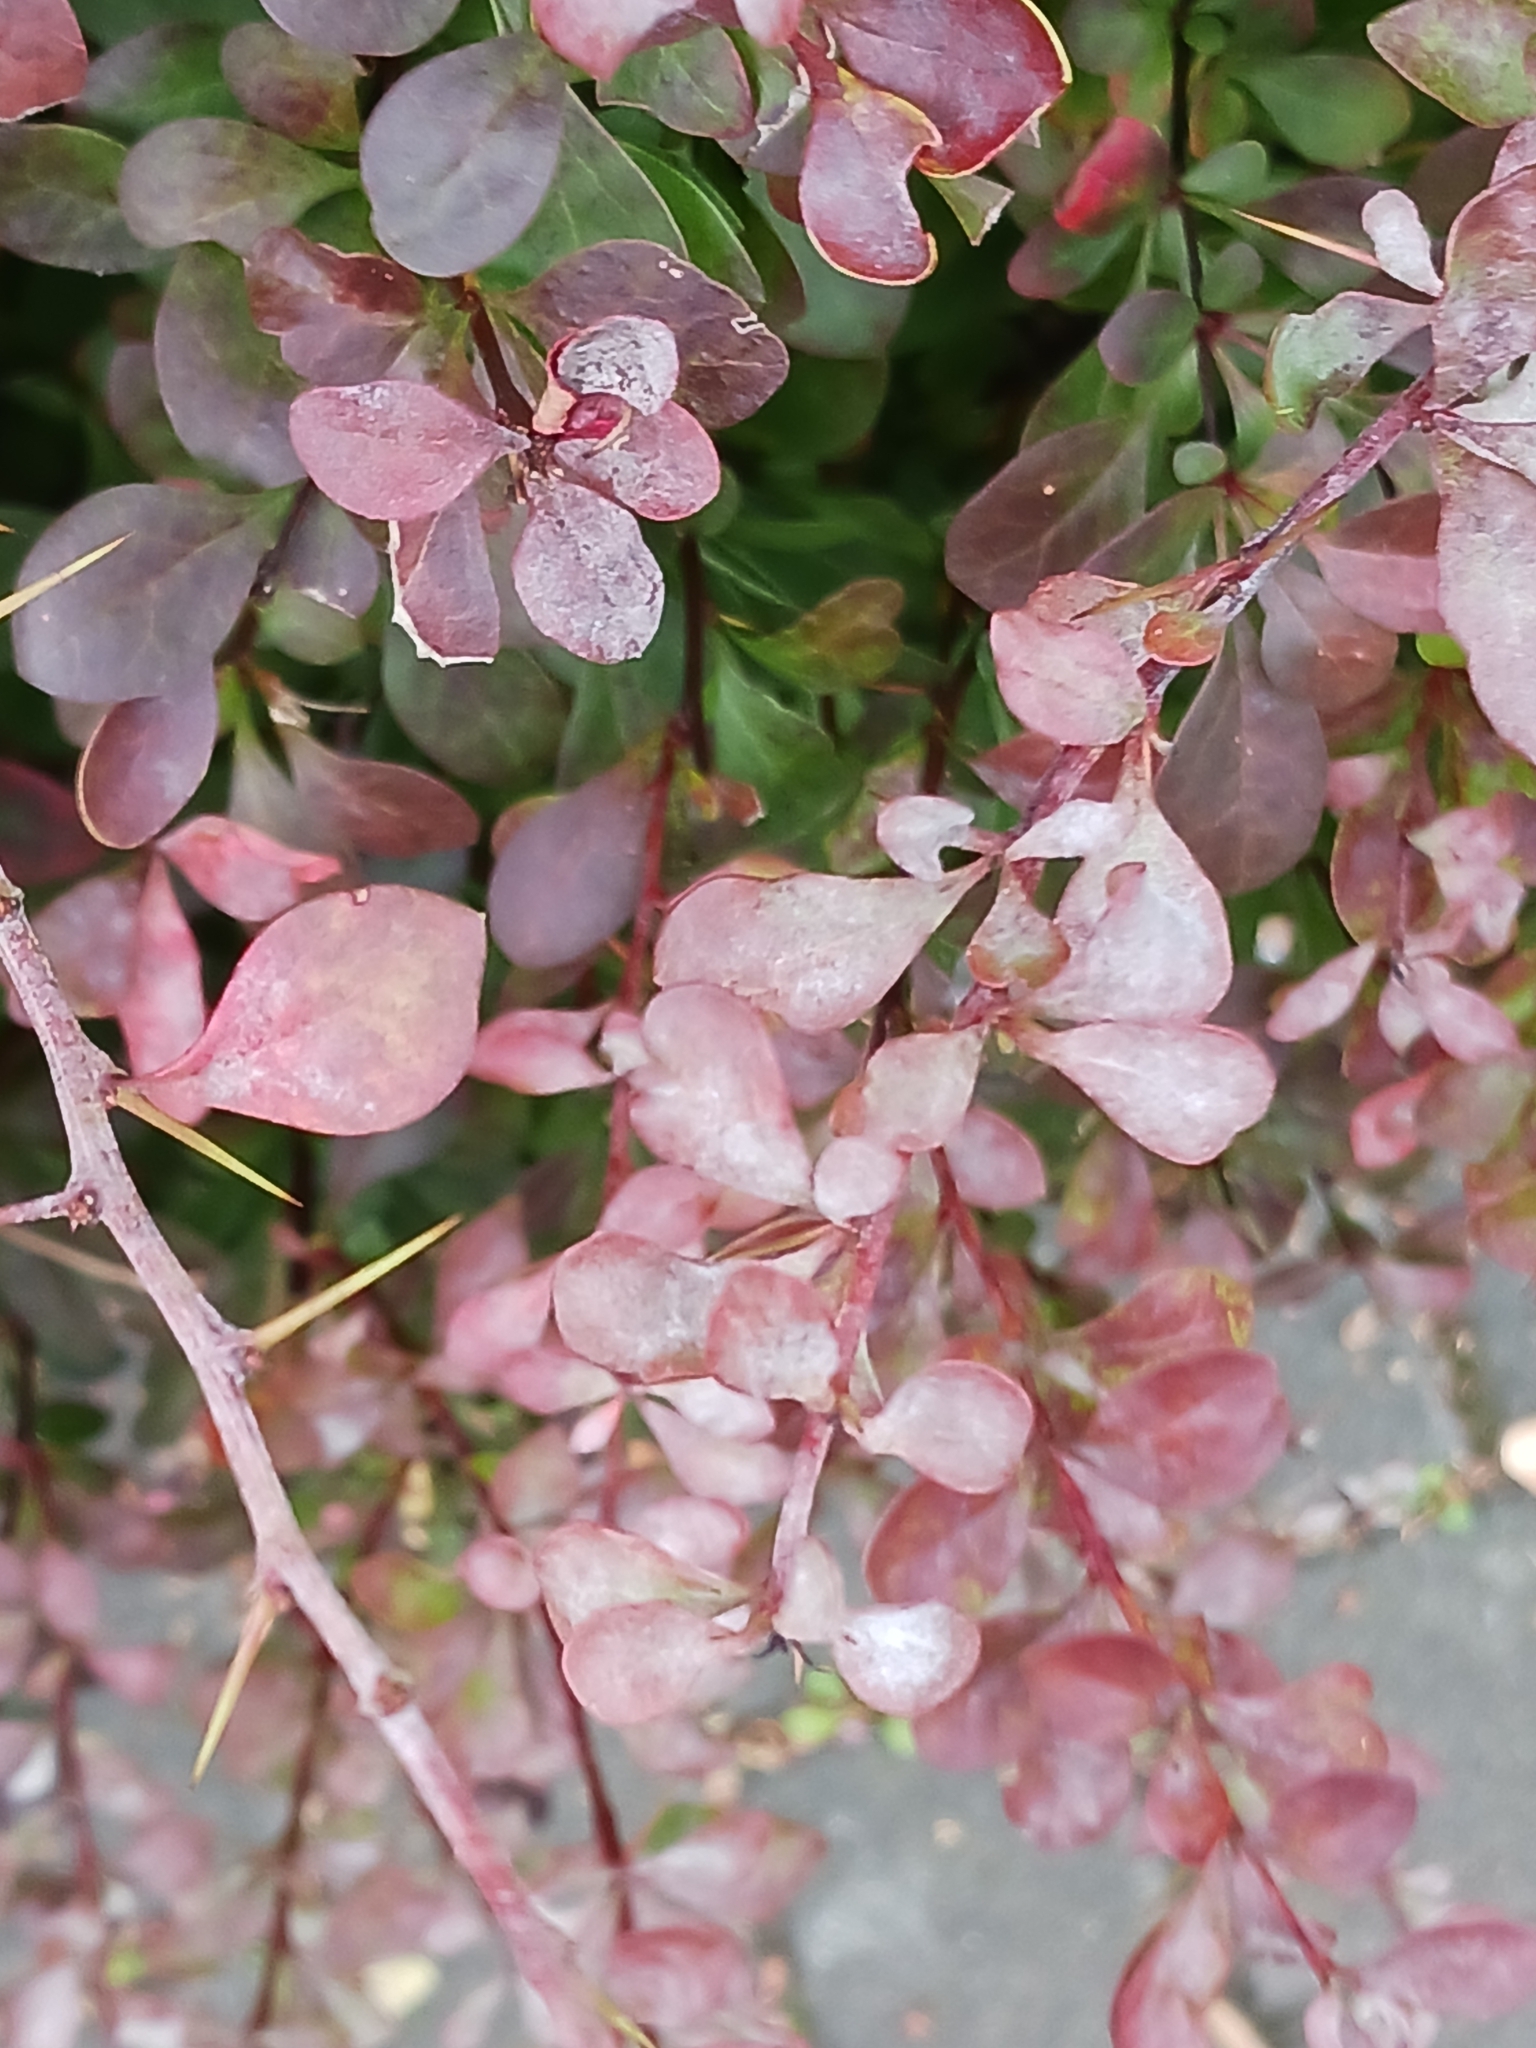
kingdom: Fungi
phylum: Ascomycota
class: Leotiomycetes
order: Helotiales
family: Erysiphaceae
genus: Erysiphe
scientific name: Erysiphe berberidis
